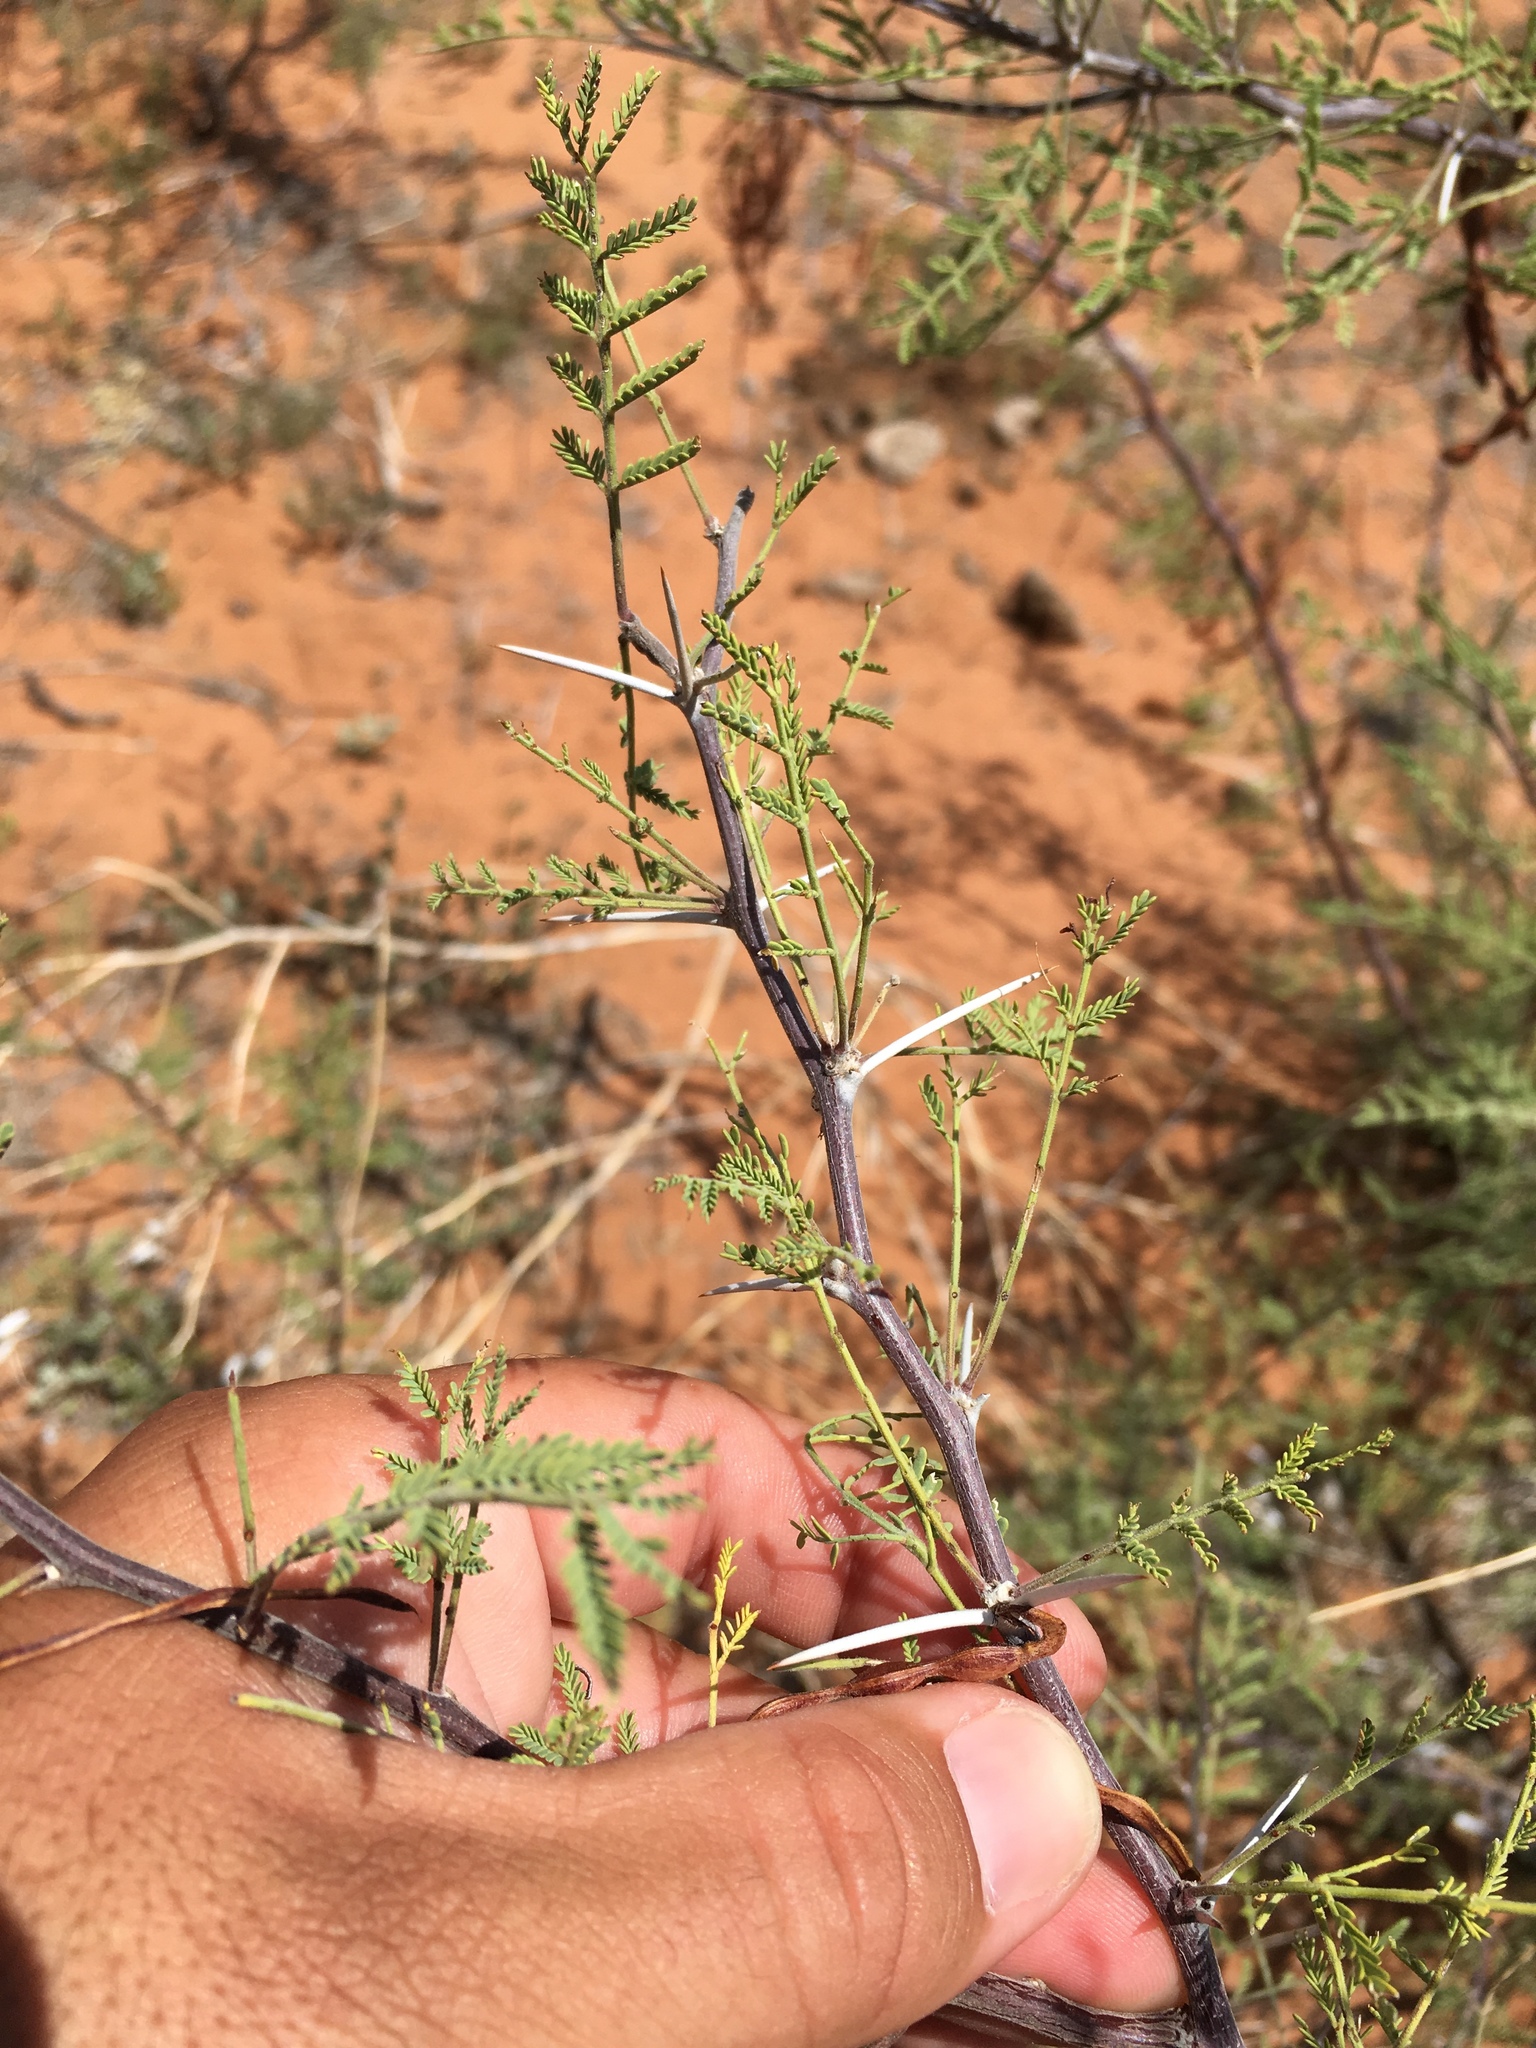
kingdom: Plantae
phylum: Tracheophyta
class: Magnoliopsida
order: Fabales
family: Fabaceae
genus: Vachellia
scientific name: Vachellia constricta
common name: Mescat acacia
